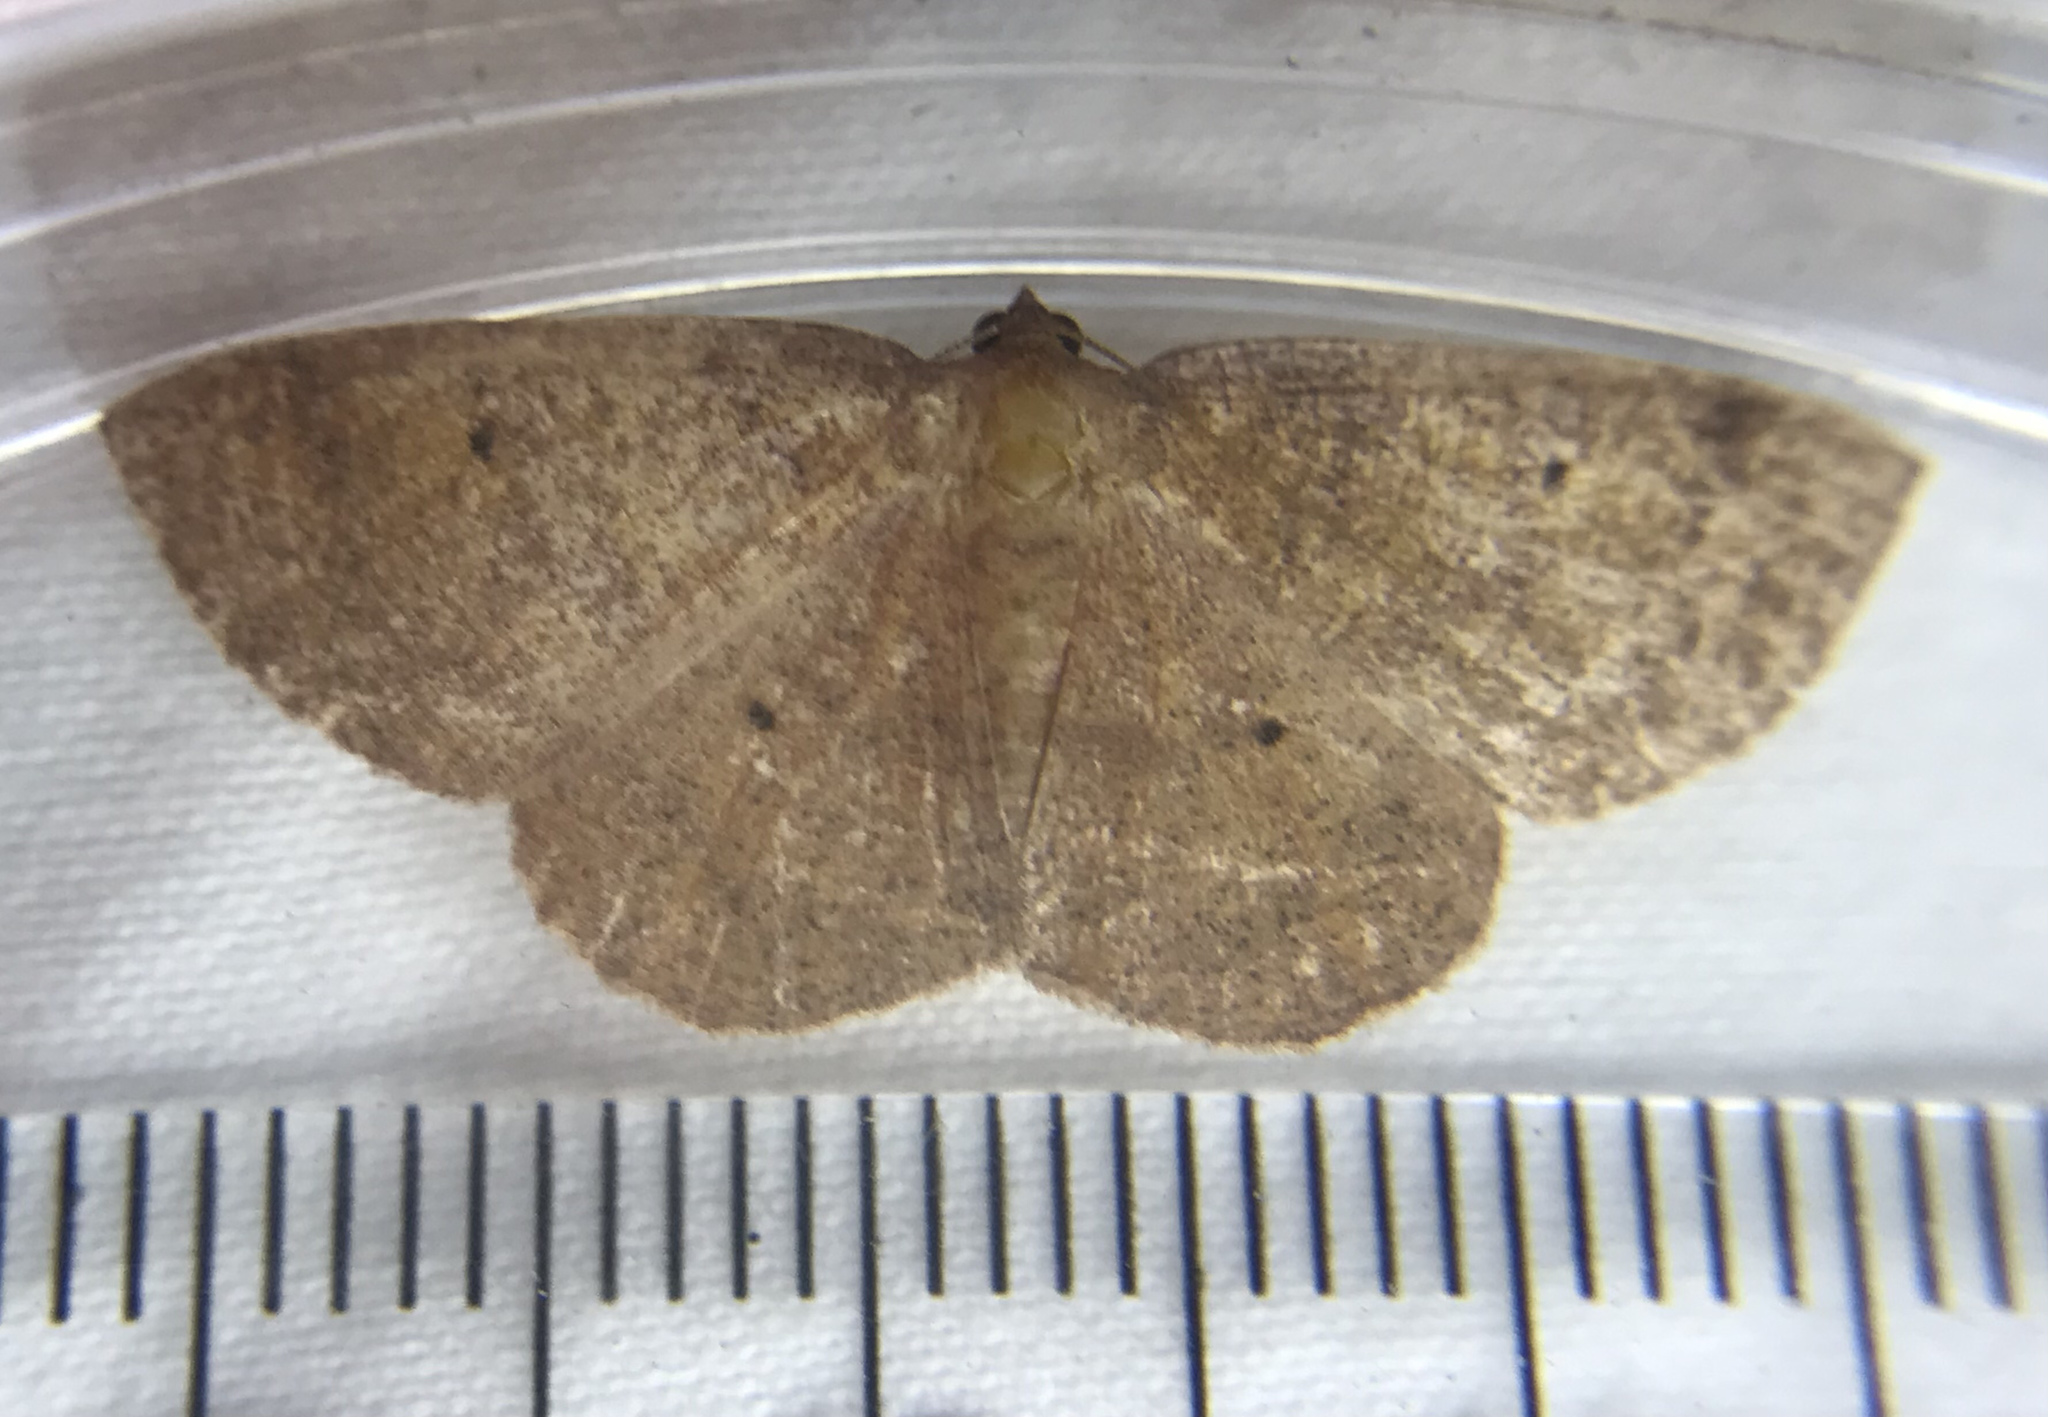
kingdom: Animalia
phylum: Arthropoda
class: Insecta
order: Lepidoptera
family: Geometridae
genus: Ilexia
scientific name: Ilexia intractata
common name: Black-dotted ruddy moth
